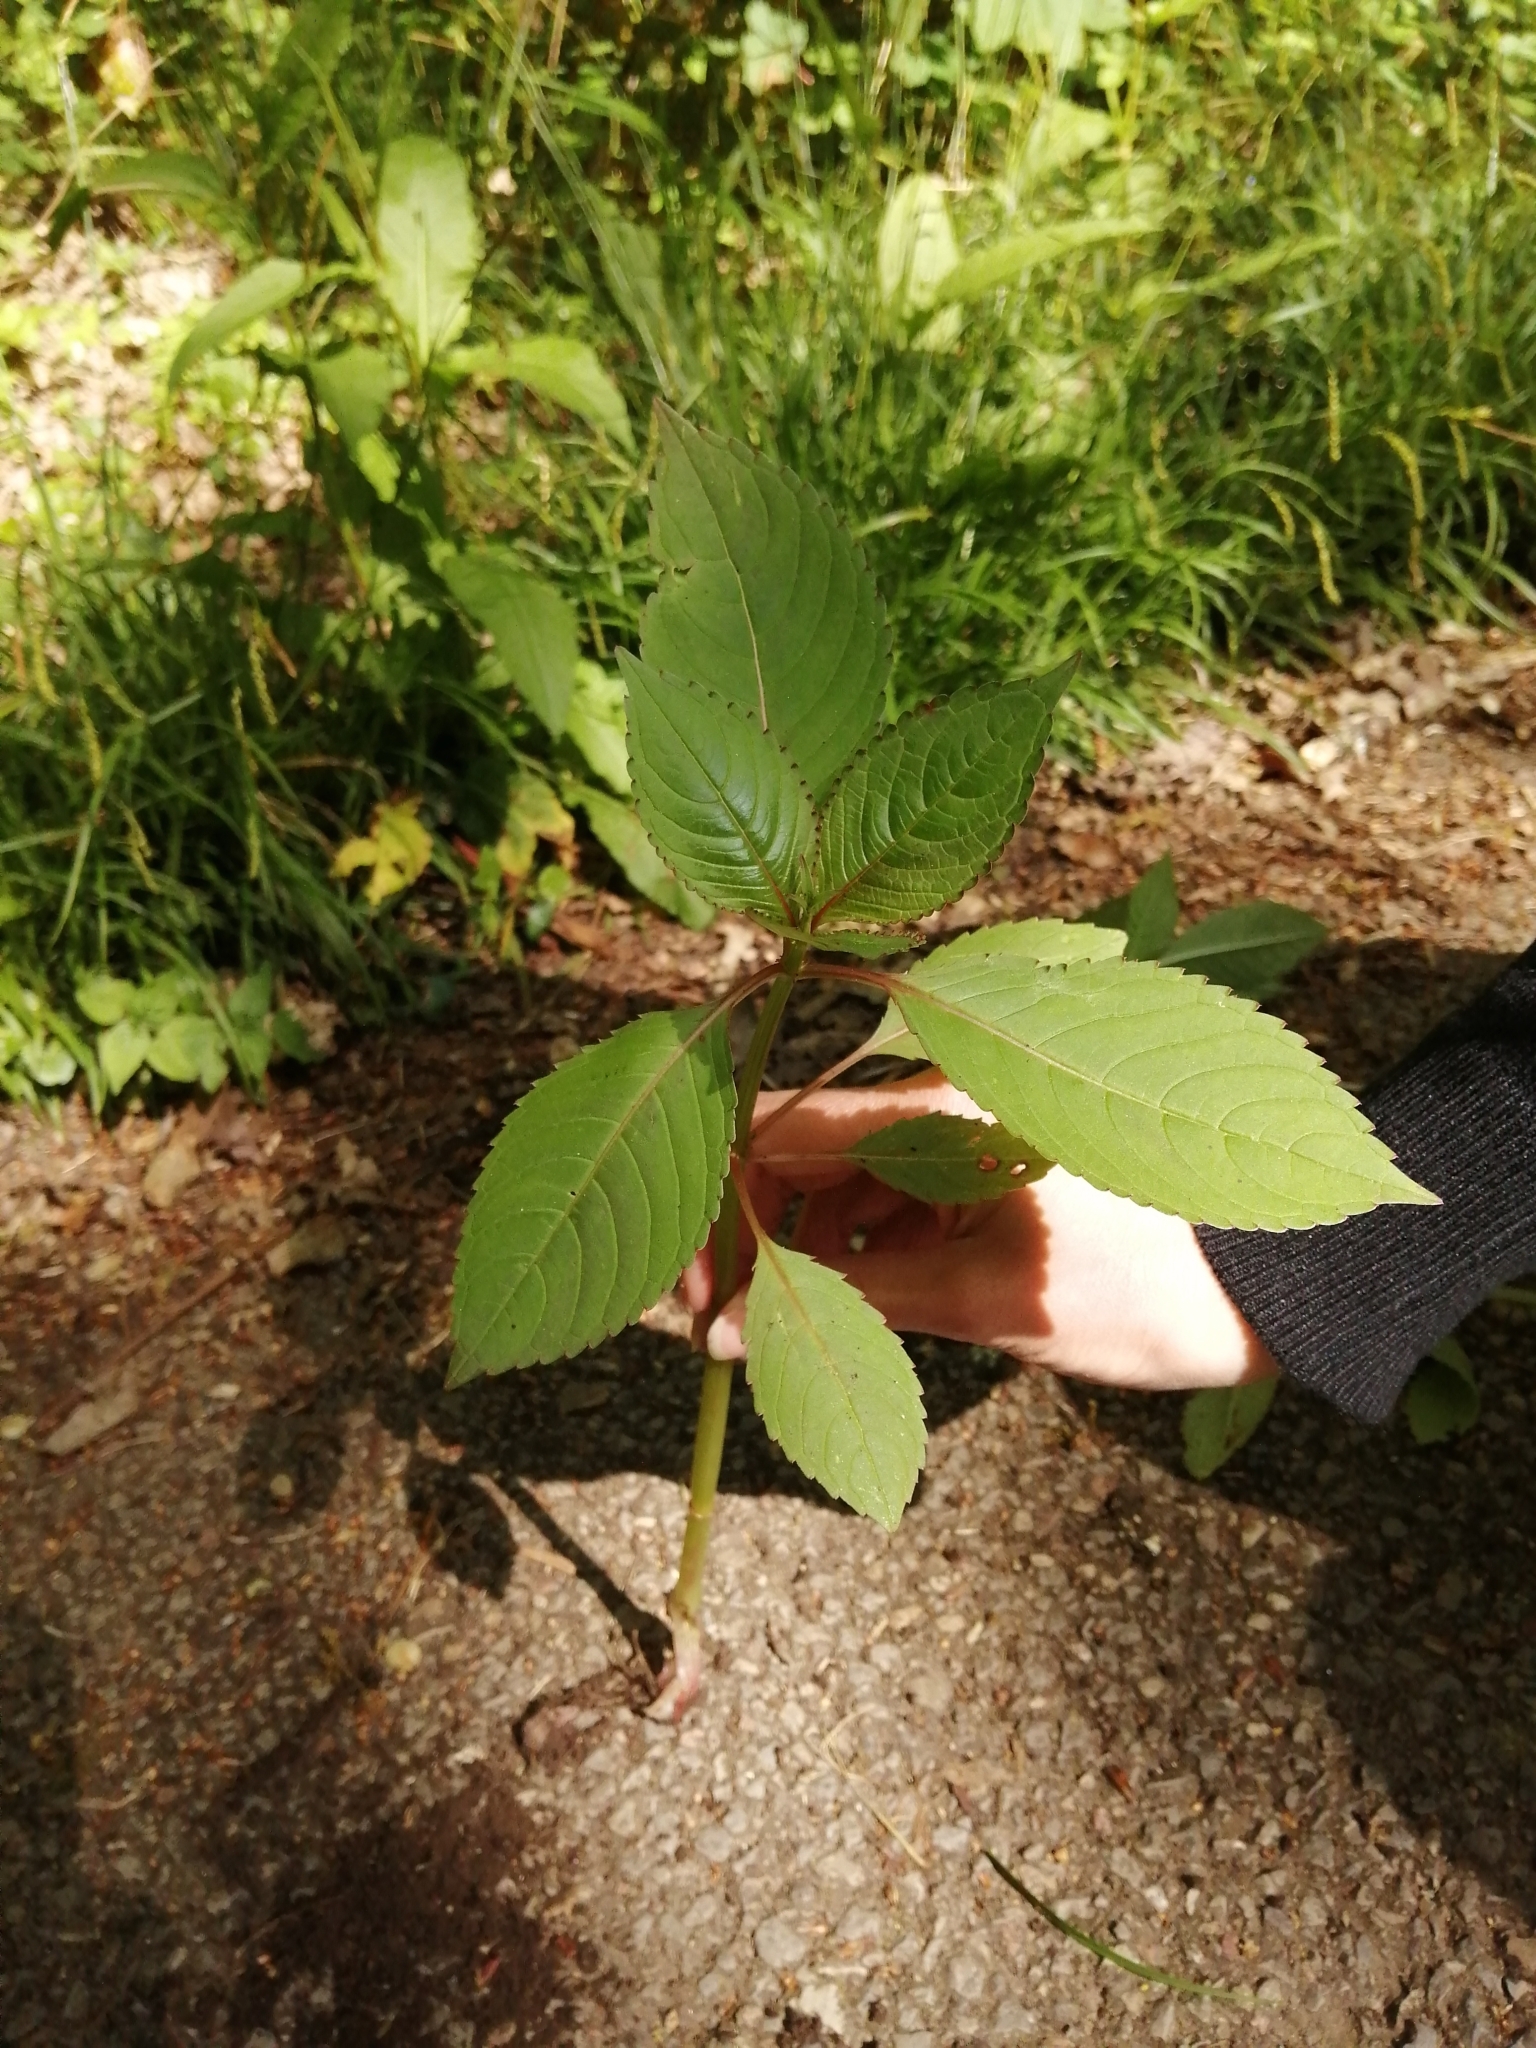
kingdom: Plantae
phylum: Tracheophyta
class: Magnoliopsida
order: Ericales
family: Balsaminaceae
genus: Impatiens
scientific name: Impatiens glandulifera
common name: Himalayan balsam
